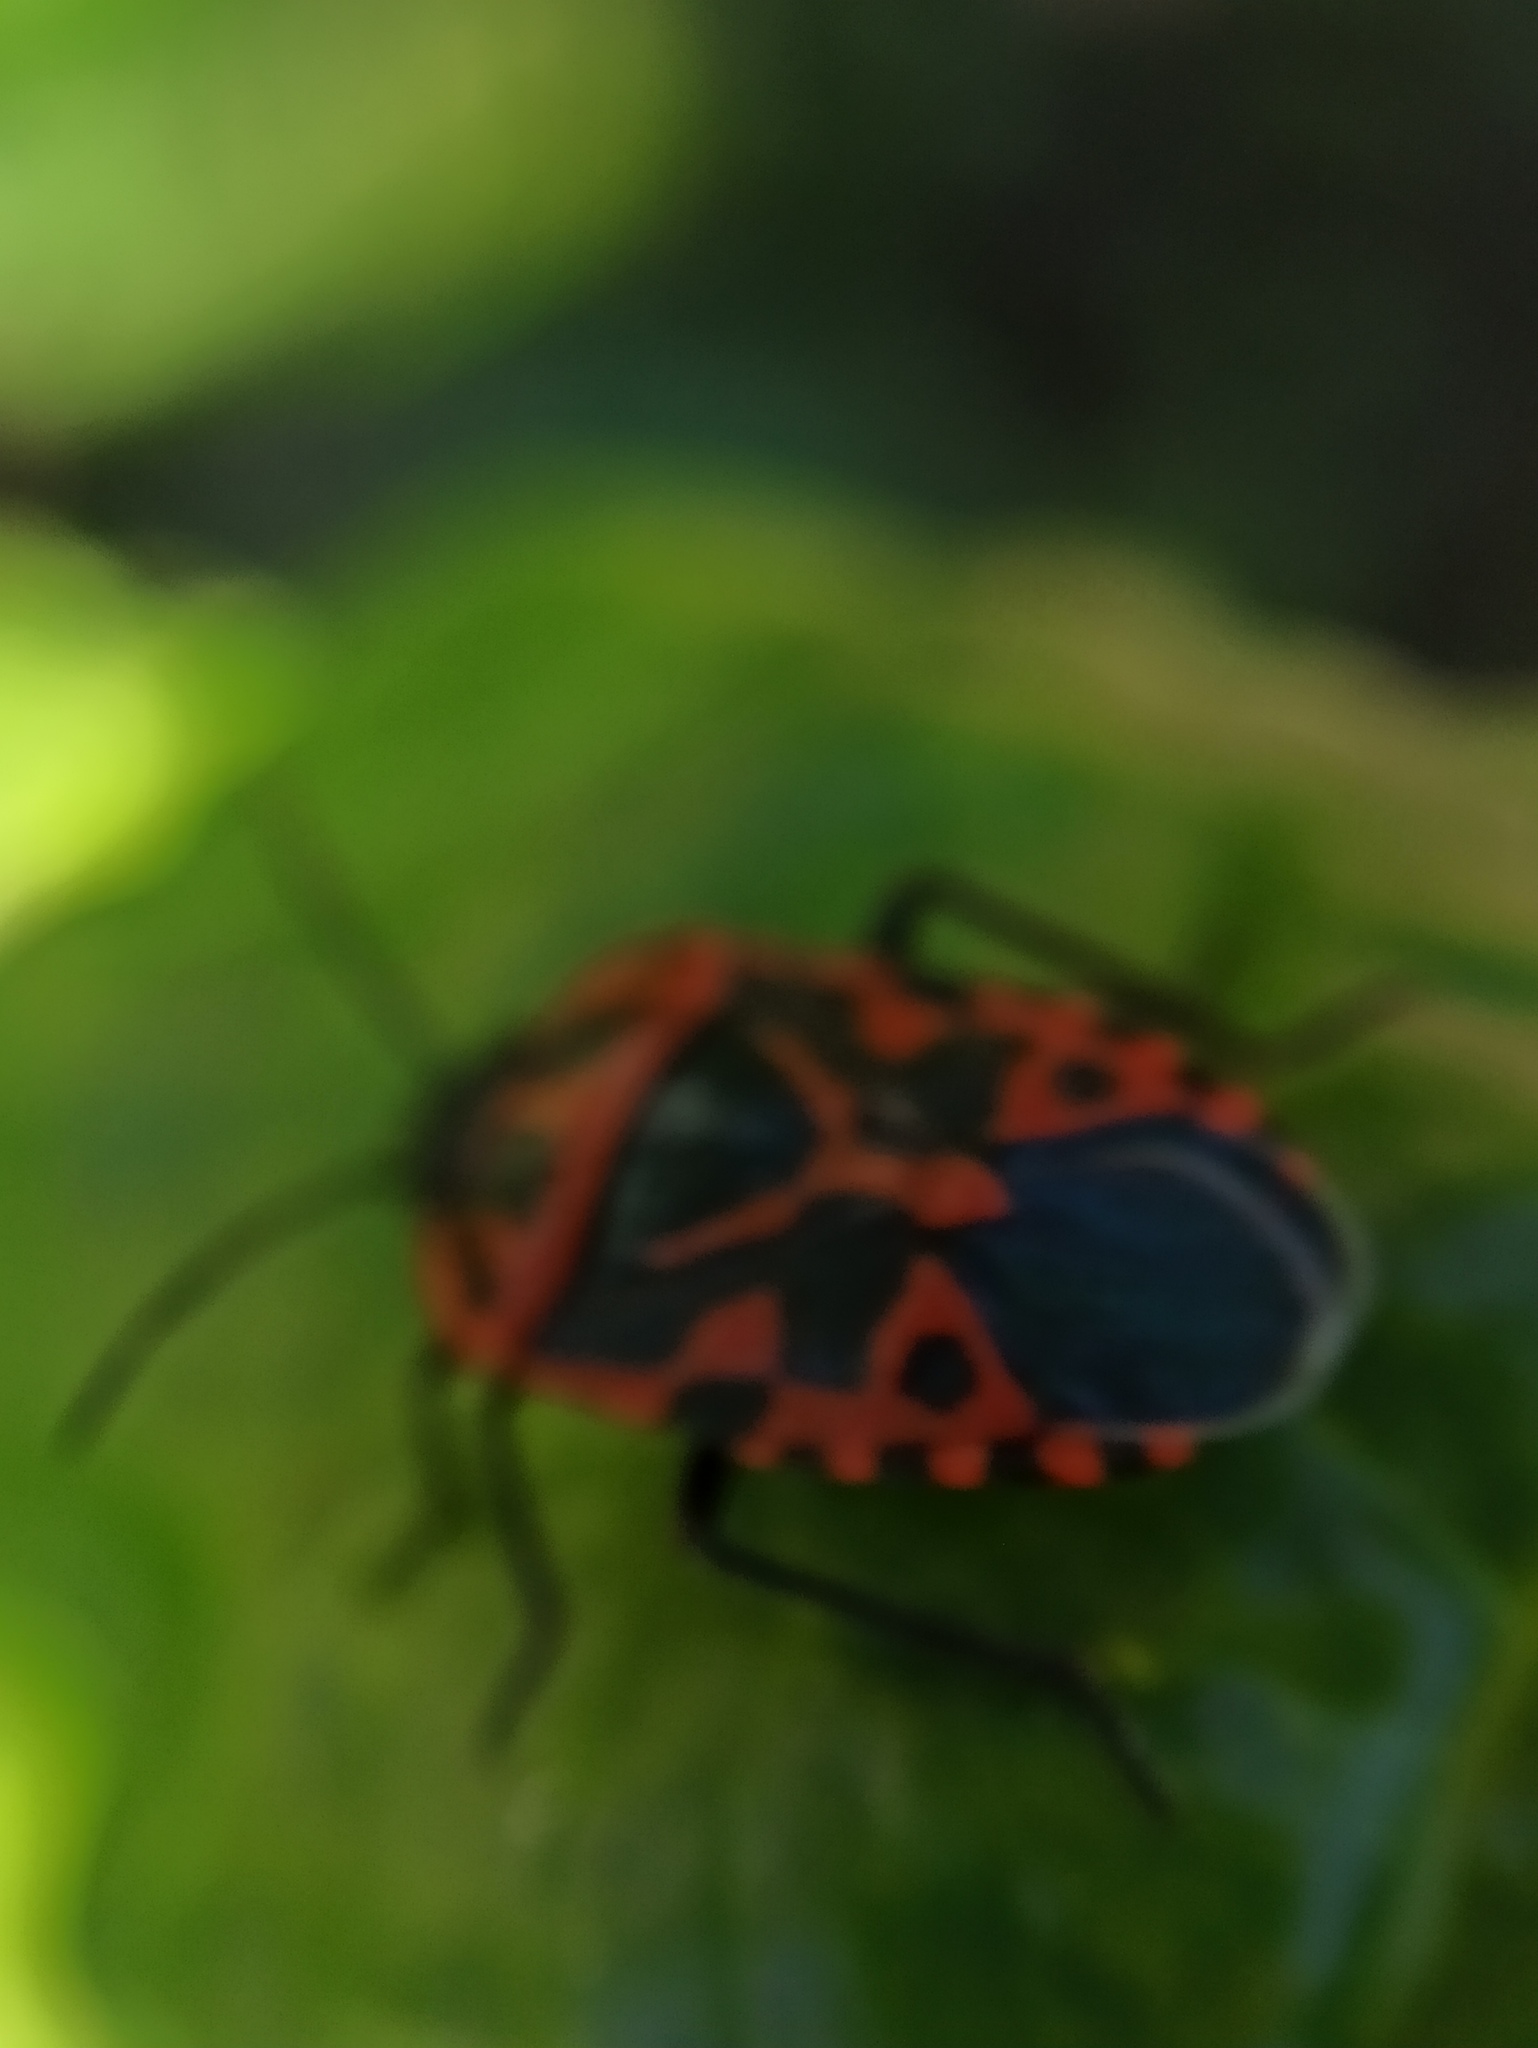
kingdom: Animalia
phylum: Arthropoda
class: Insecta
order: Hemiptera
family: Pentatomidae
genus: Eurydema
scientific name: Eurydema ventralis
